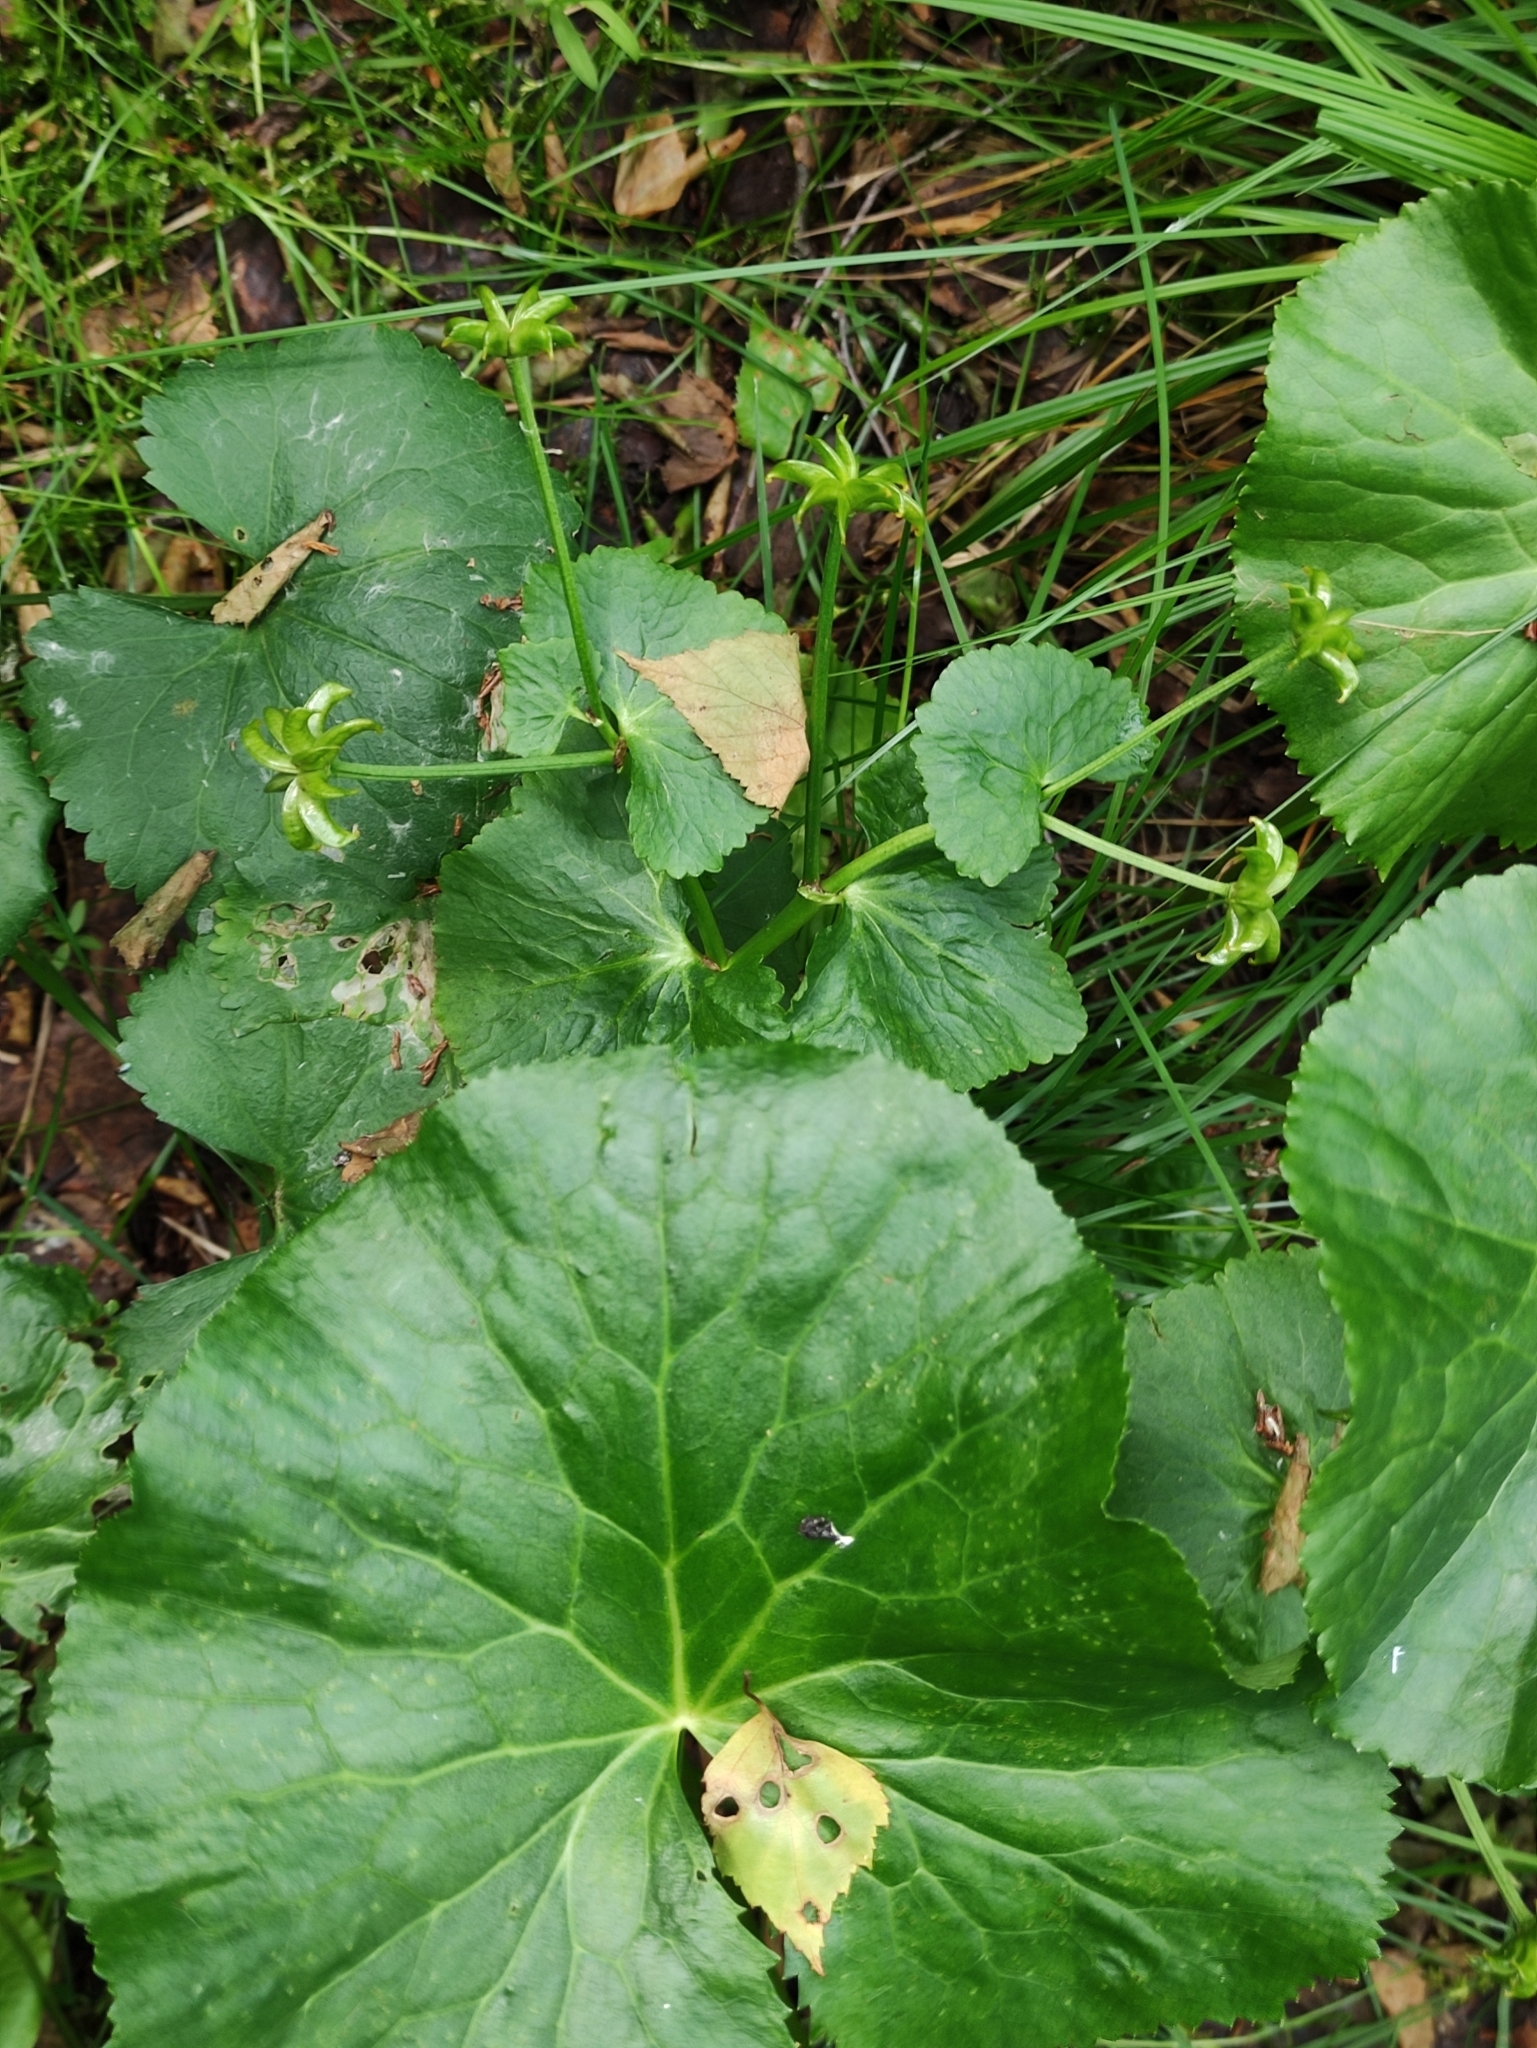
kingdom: Plantae
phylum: Tracheophyta
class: Magnoliopsida
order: Ranunculales
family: Ranunculaceae
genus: Caltha
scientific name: Caltha palustris
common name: Marsh marigold
